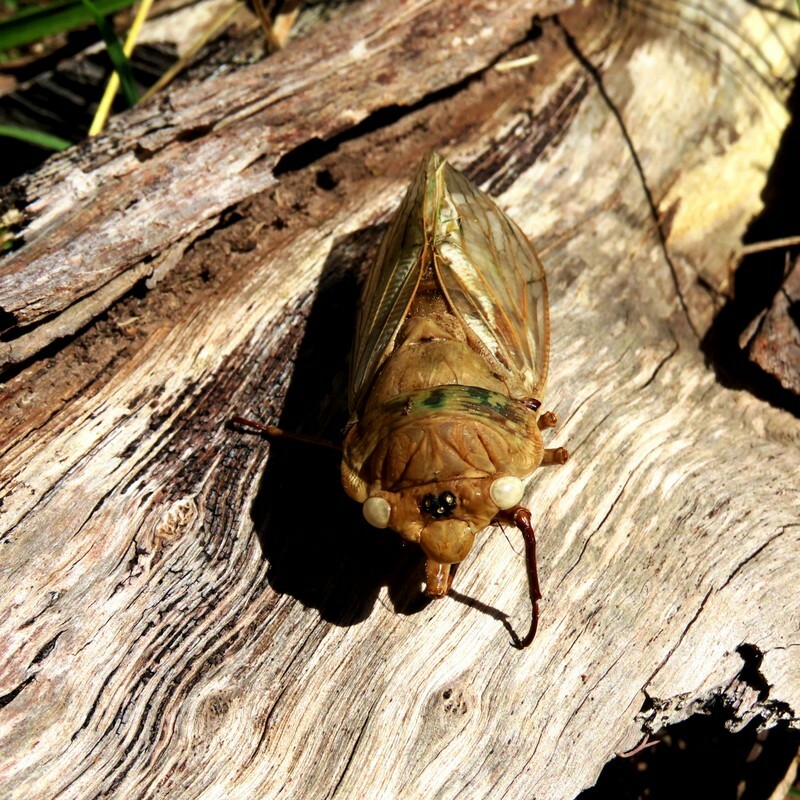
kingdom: Animalia
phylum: Arthropoda
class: Insecta
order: Hemiptera
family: Cicadidae
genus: Cyclochila
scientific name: Cyclochila australasiae
